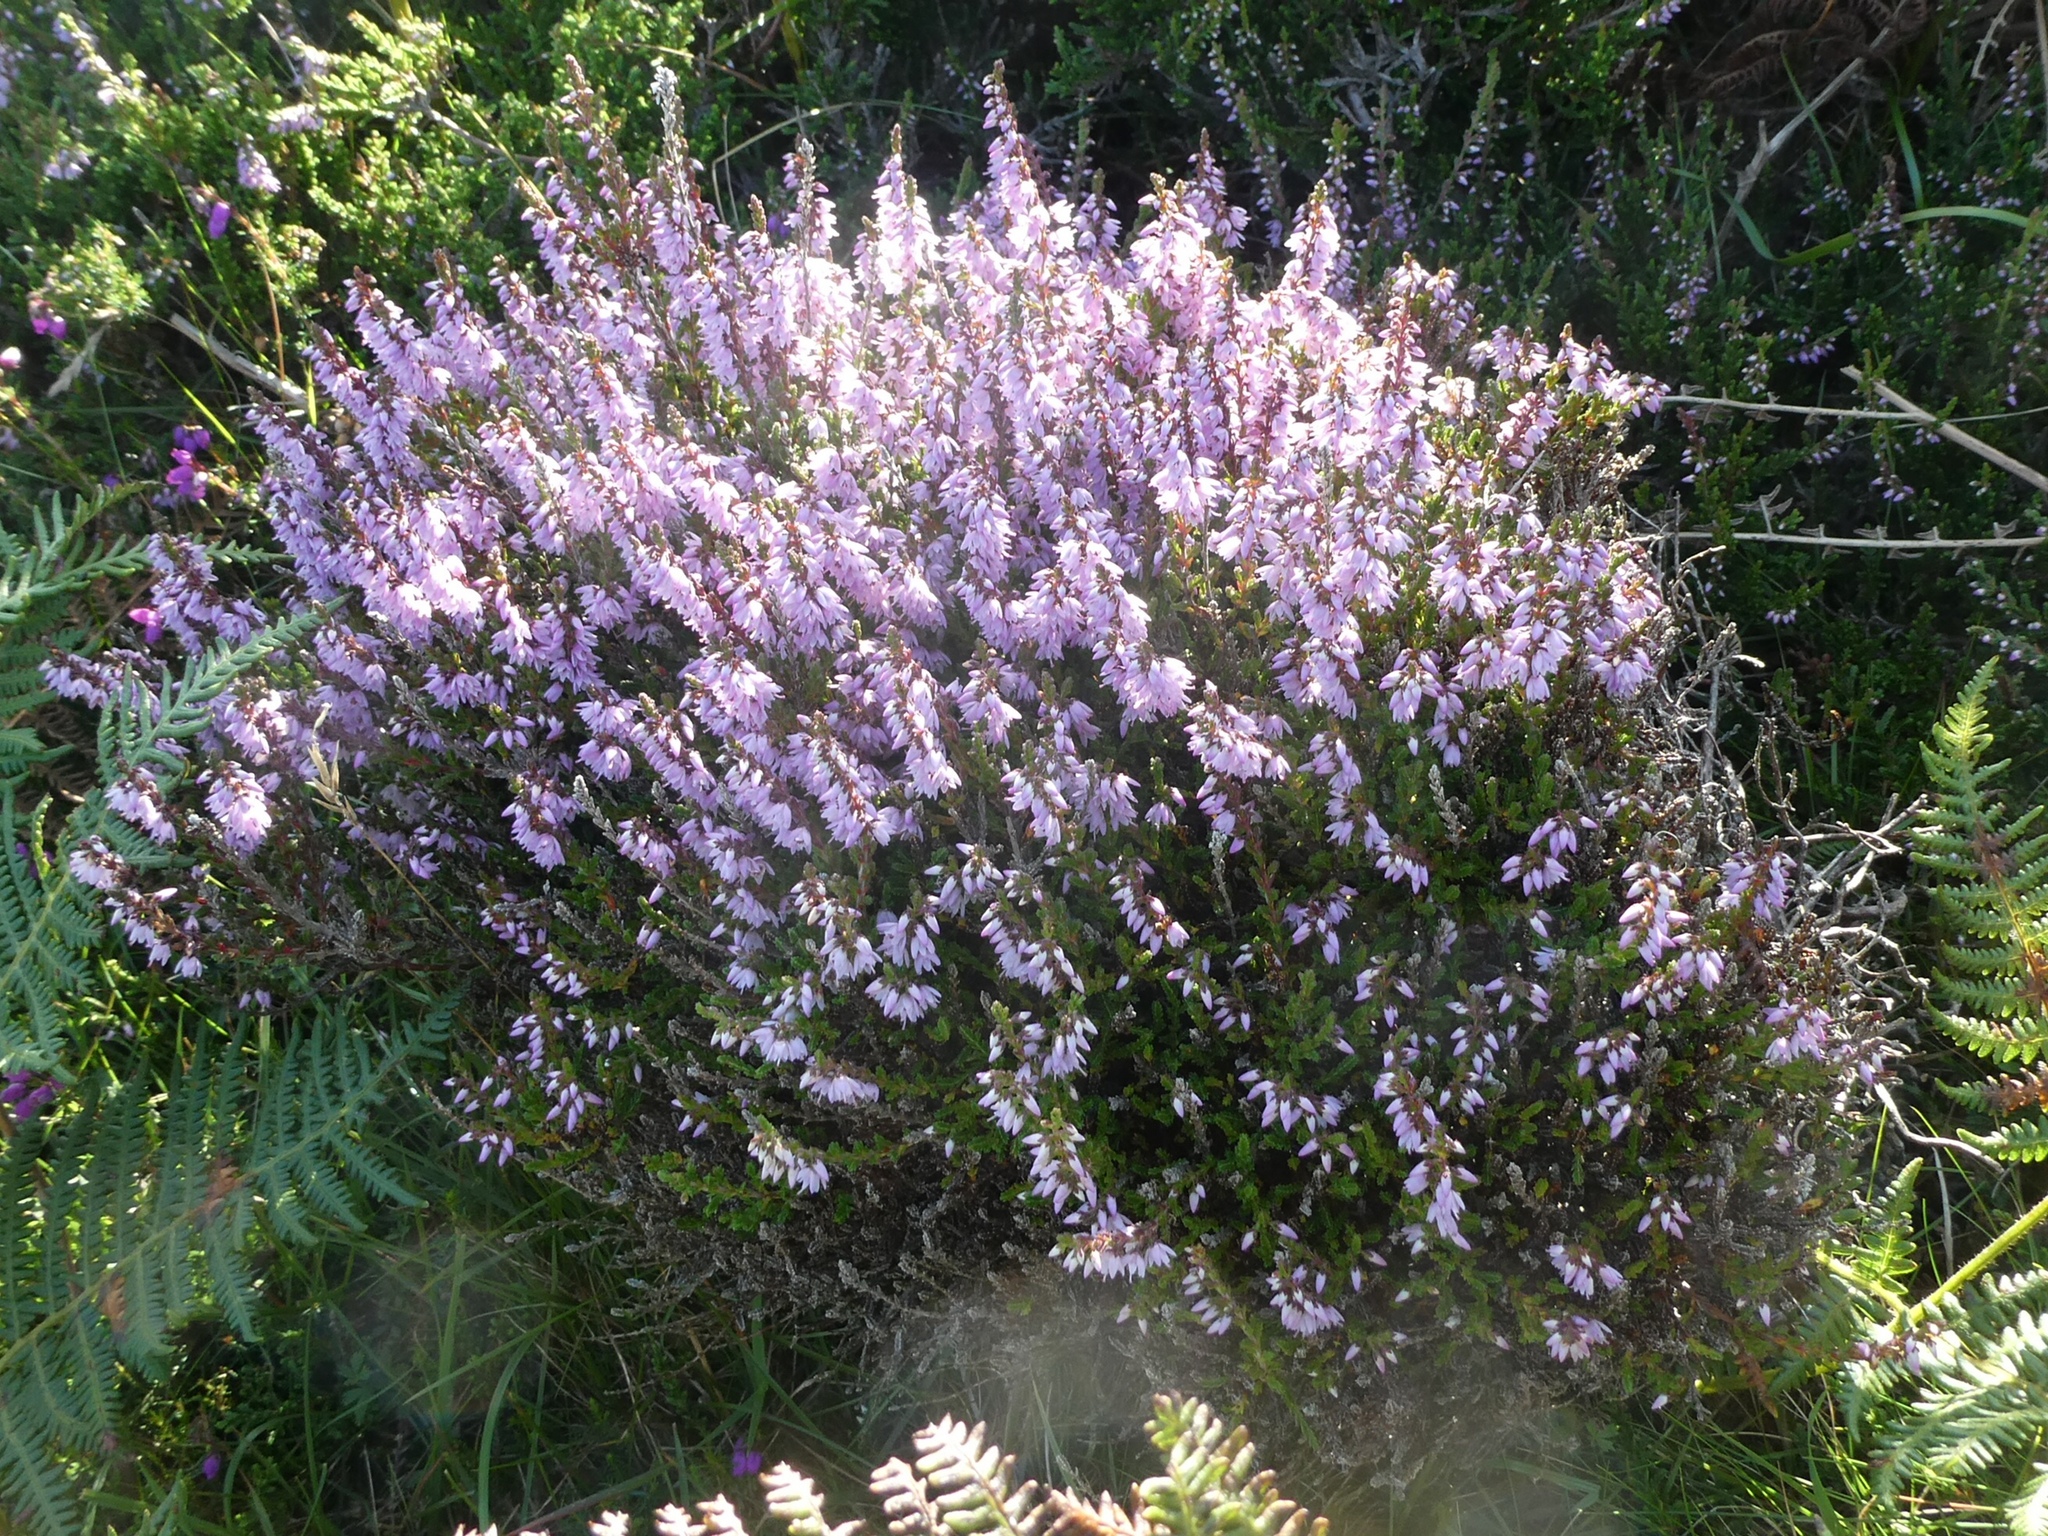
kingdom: Plantae
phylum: Tracheophyta
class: Magnoliopsida
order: Ericales
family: Ericaceae
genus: Calluna
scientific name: Calluna vulgaris
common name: Heather
